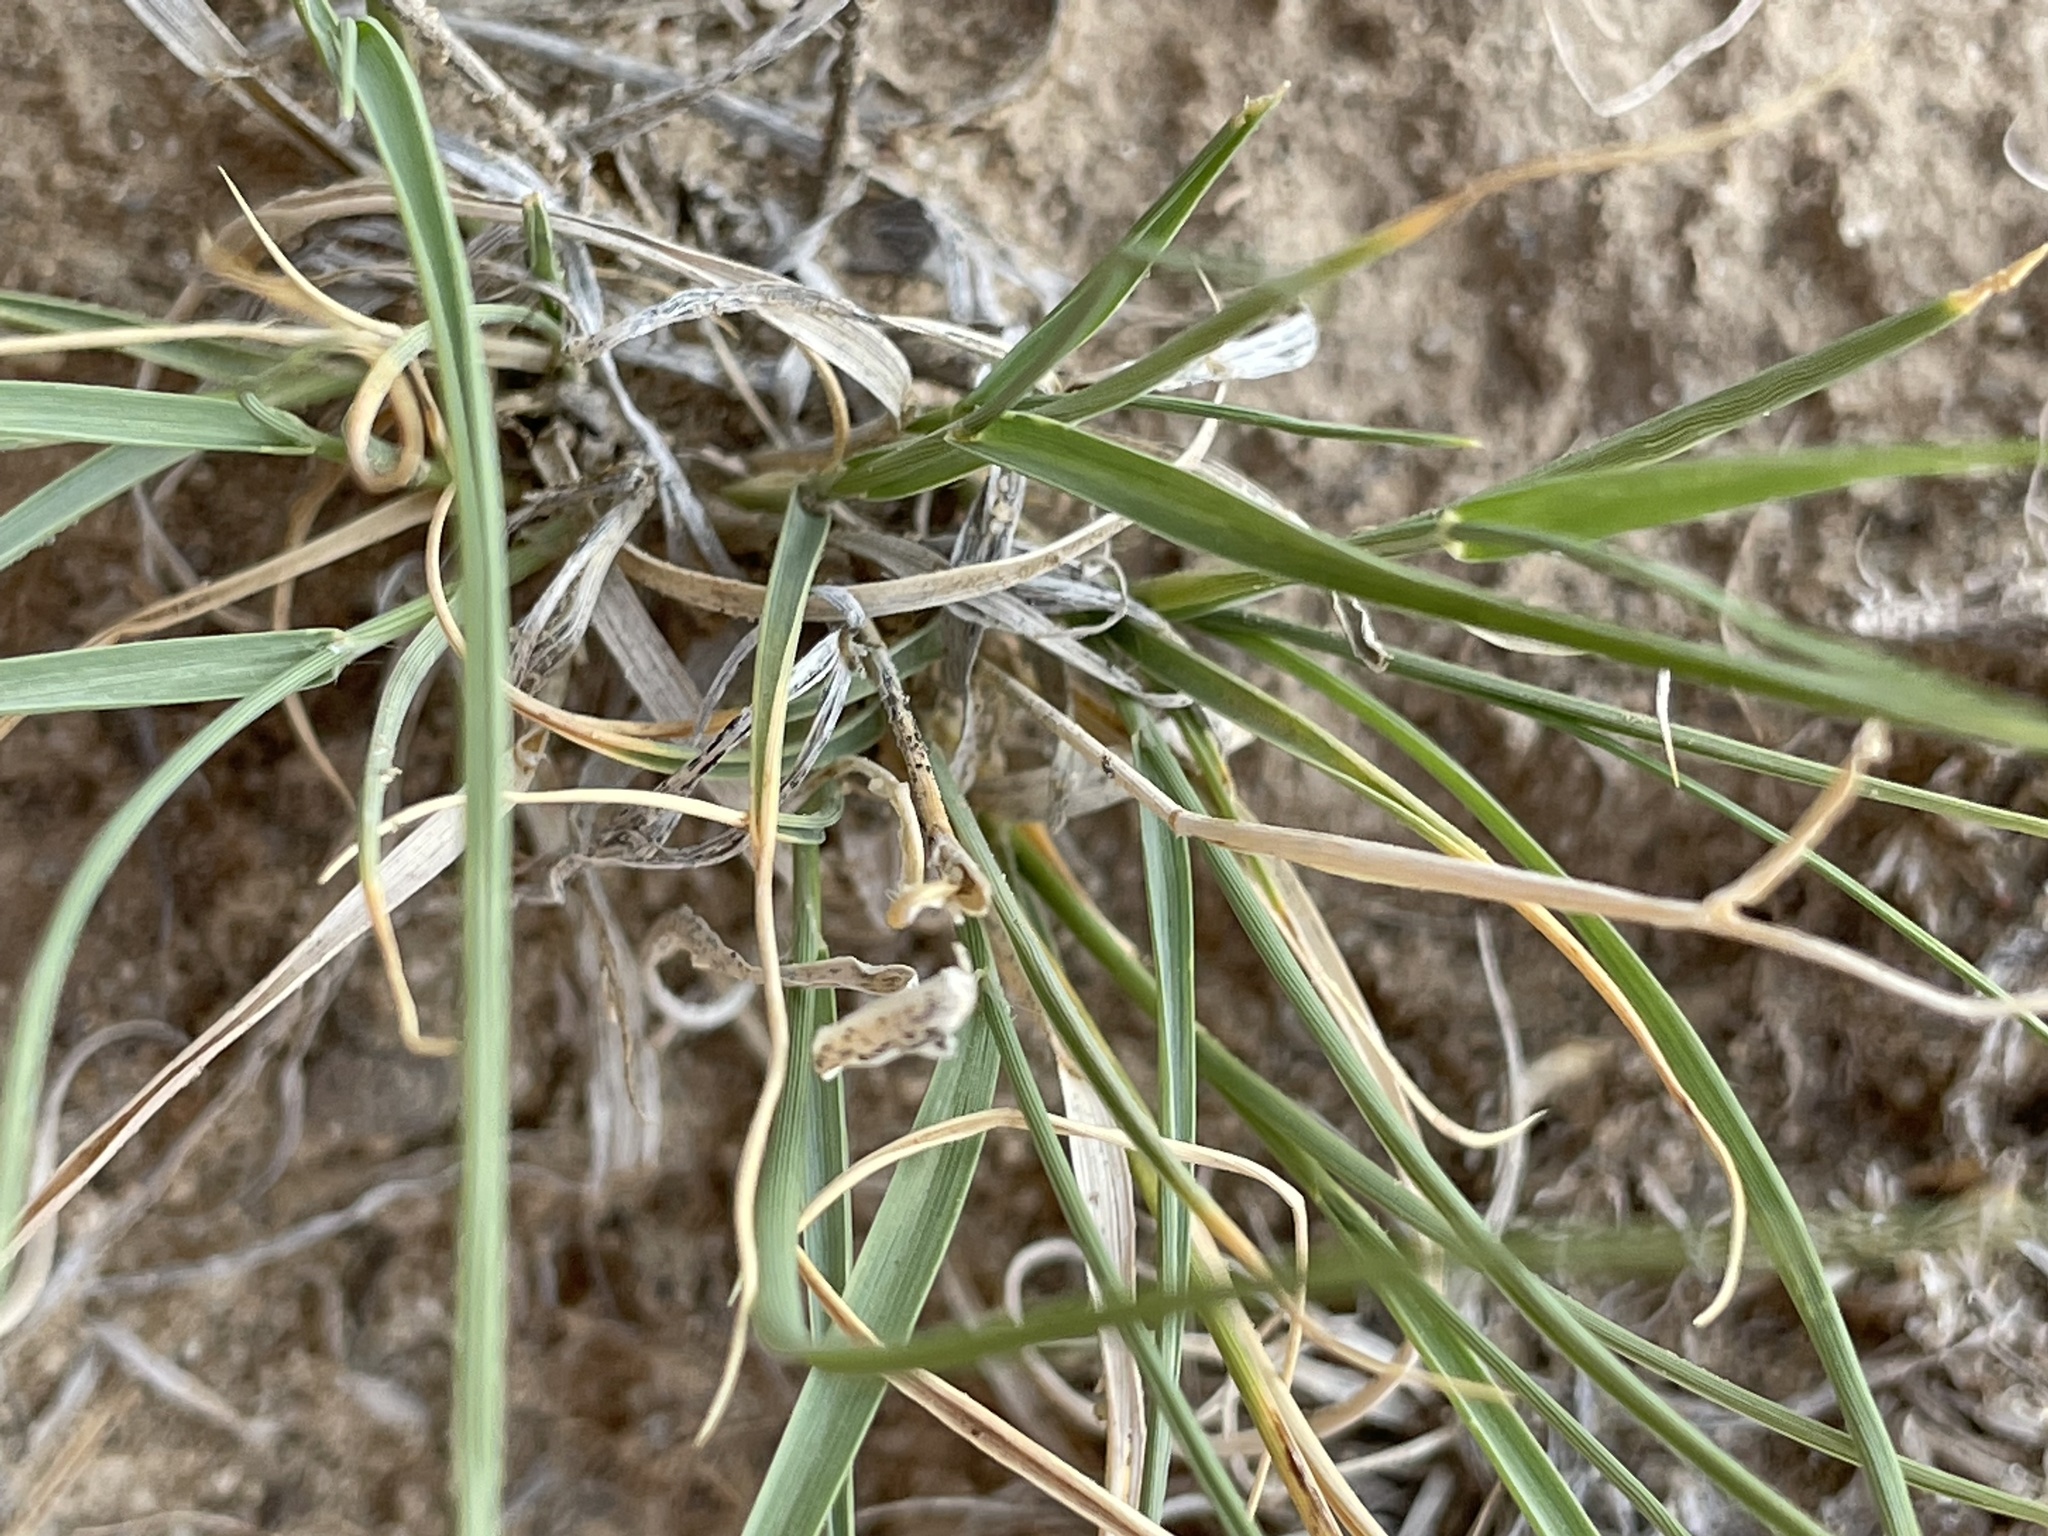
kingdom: Plantae
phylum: Tracheophyta
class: Liliopsida
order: Poales
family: Poaceae
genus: Hilaria
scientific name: Hilaria jamesii
